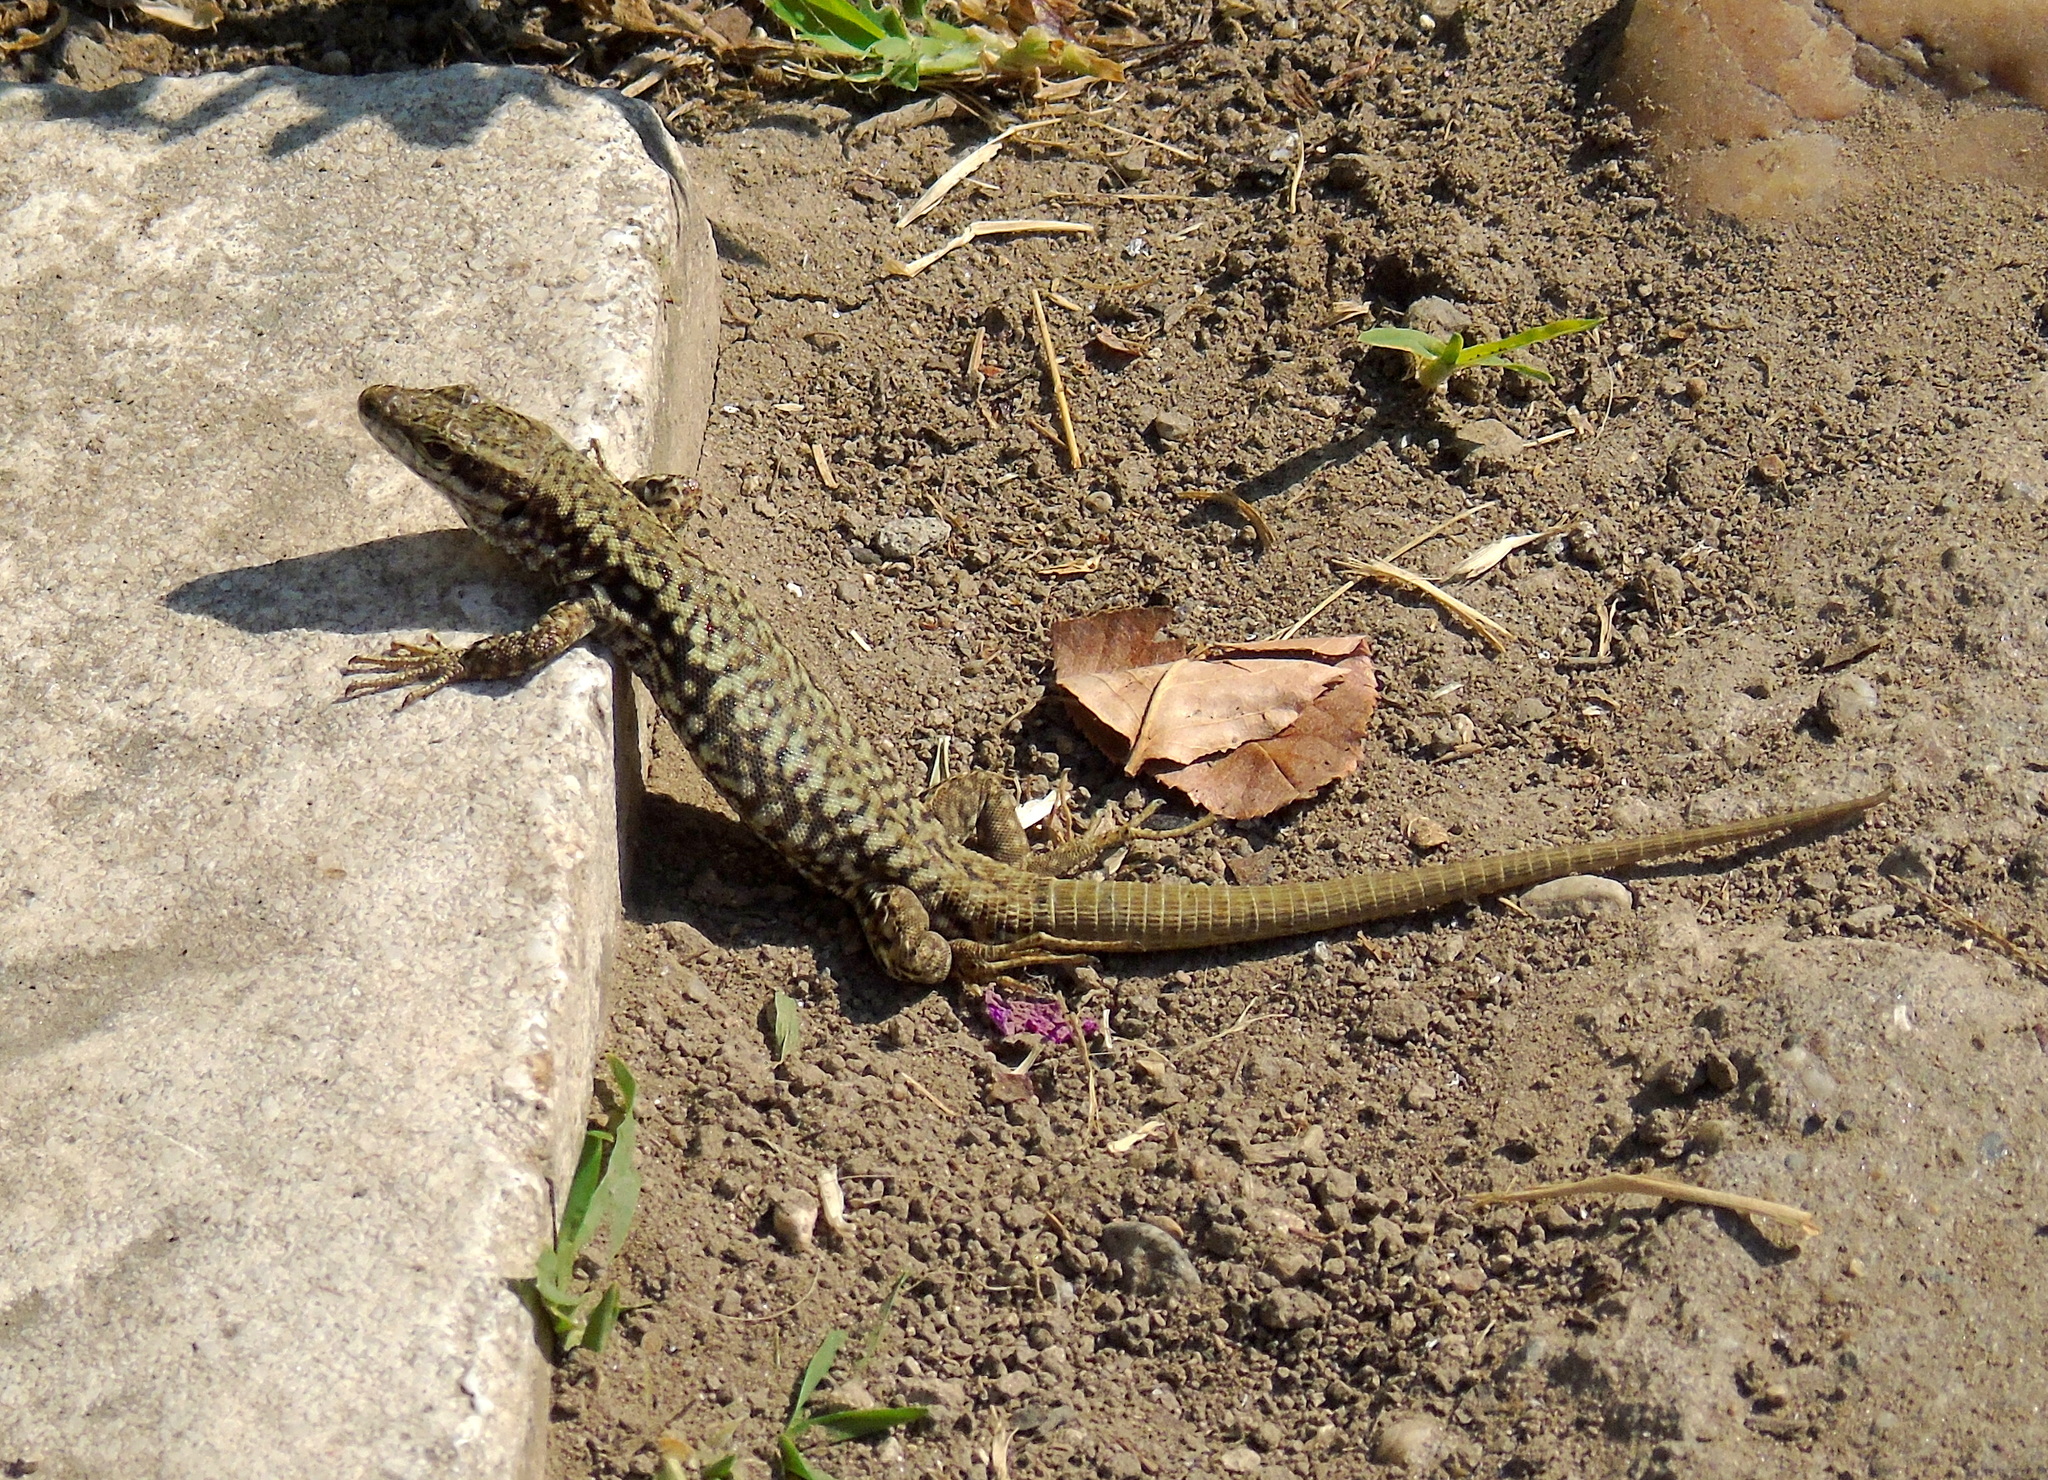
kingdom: Animalia
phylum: Chordata
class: Squamata
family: Lacertidae
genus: Podarcis
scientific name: Podarcis muralis
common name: Common wall lizard
